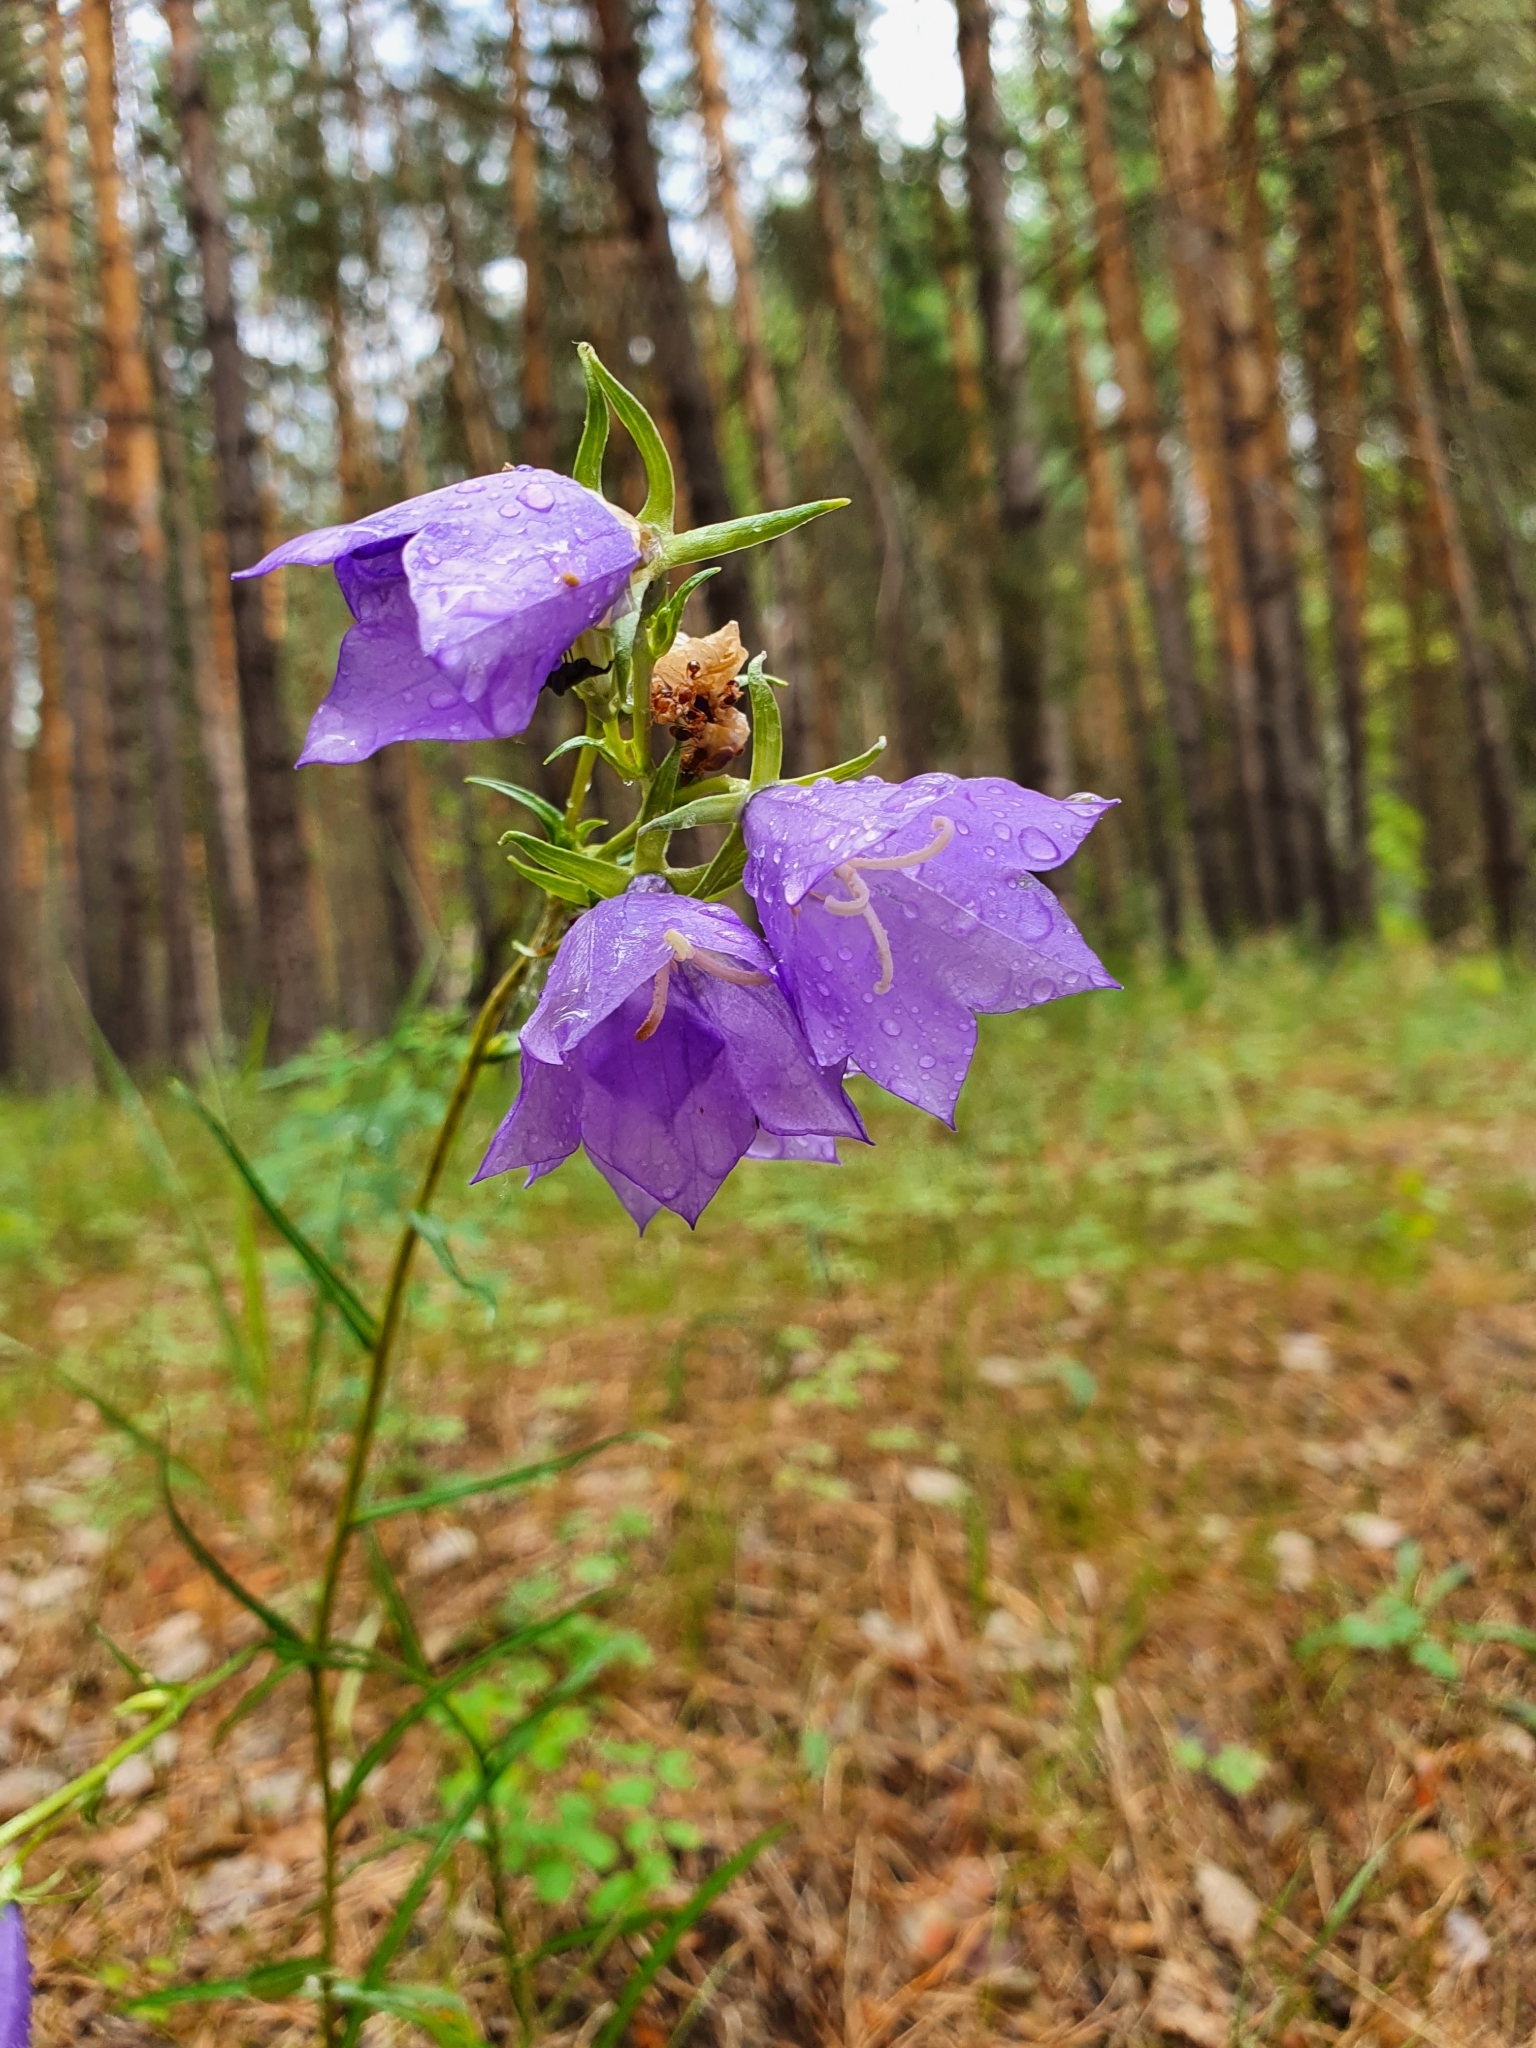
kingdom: Plantae
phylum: Tracheophyta
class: Magnoliopsida
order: Asterales
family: Campanulaceae
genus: Campanula
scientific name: Campanula persicifolia
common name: Peach-leaved bellflower
